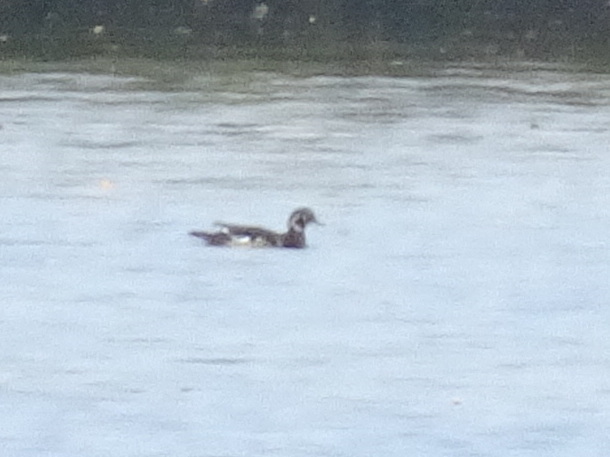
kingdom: Animalia
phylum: Chordata
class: Aves
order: Anseriformes
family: Anatidae
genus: Aix
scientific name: Aix sponsa
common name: Wood duck
